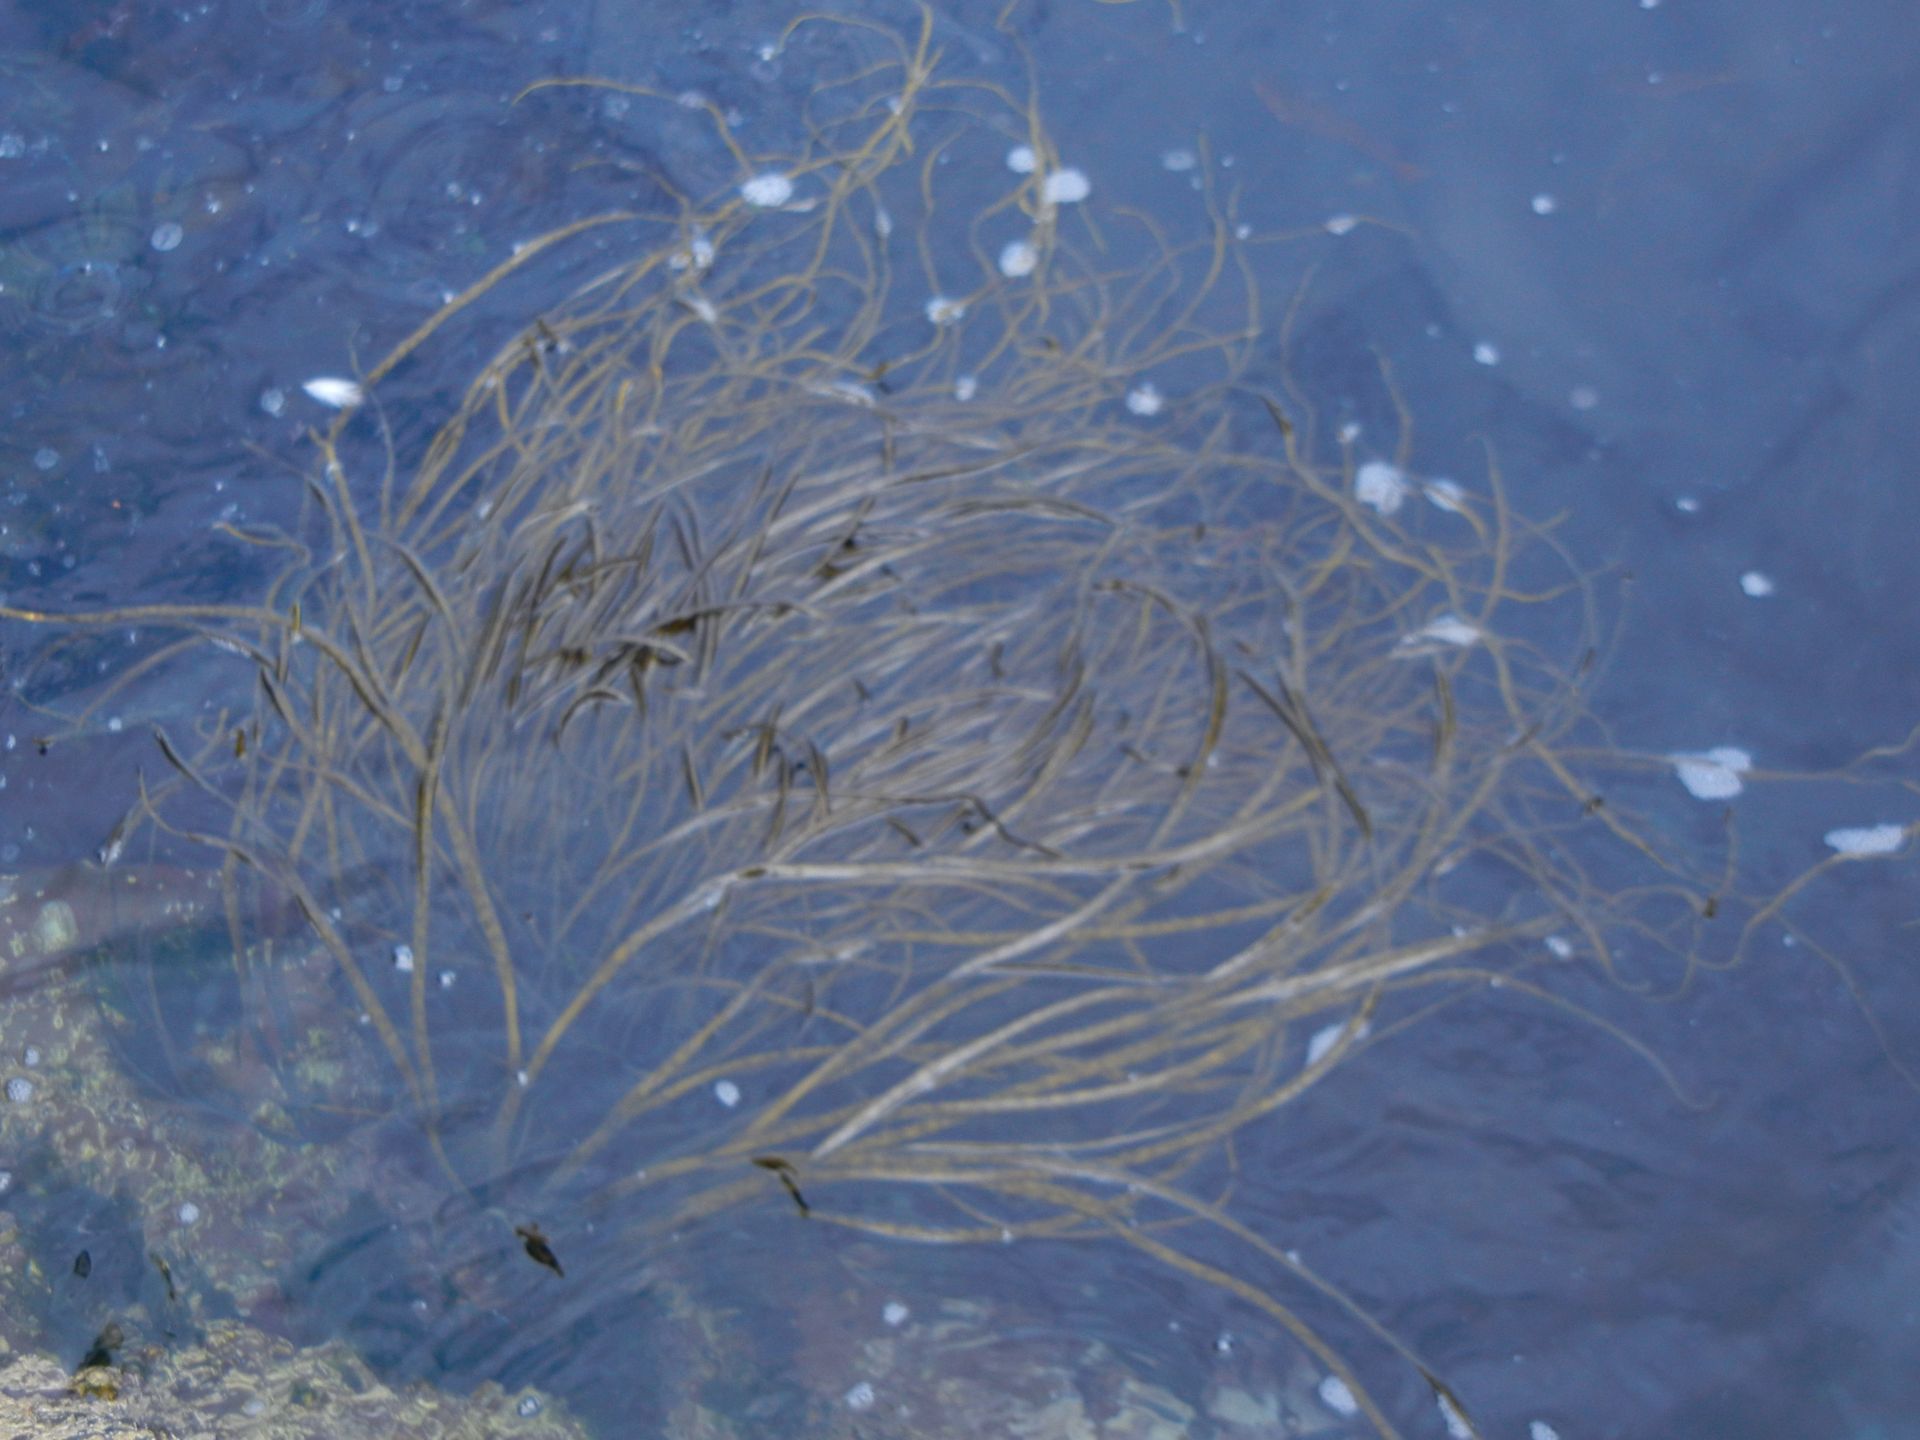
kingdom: Chromista
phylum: Ochrophyta
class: Phaeophyceae
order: Fucales
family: Himanthaliaceae
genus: Himanthalia
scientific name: Himanthalia elongata
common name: Sea-thong
